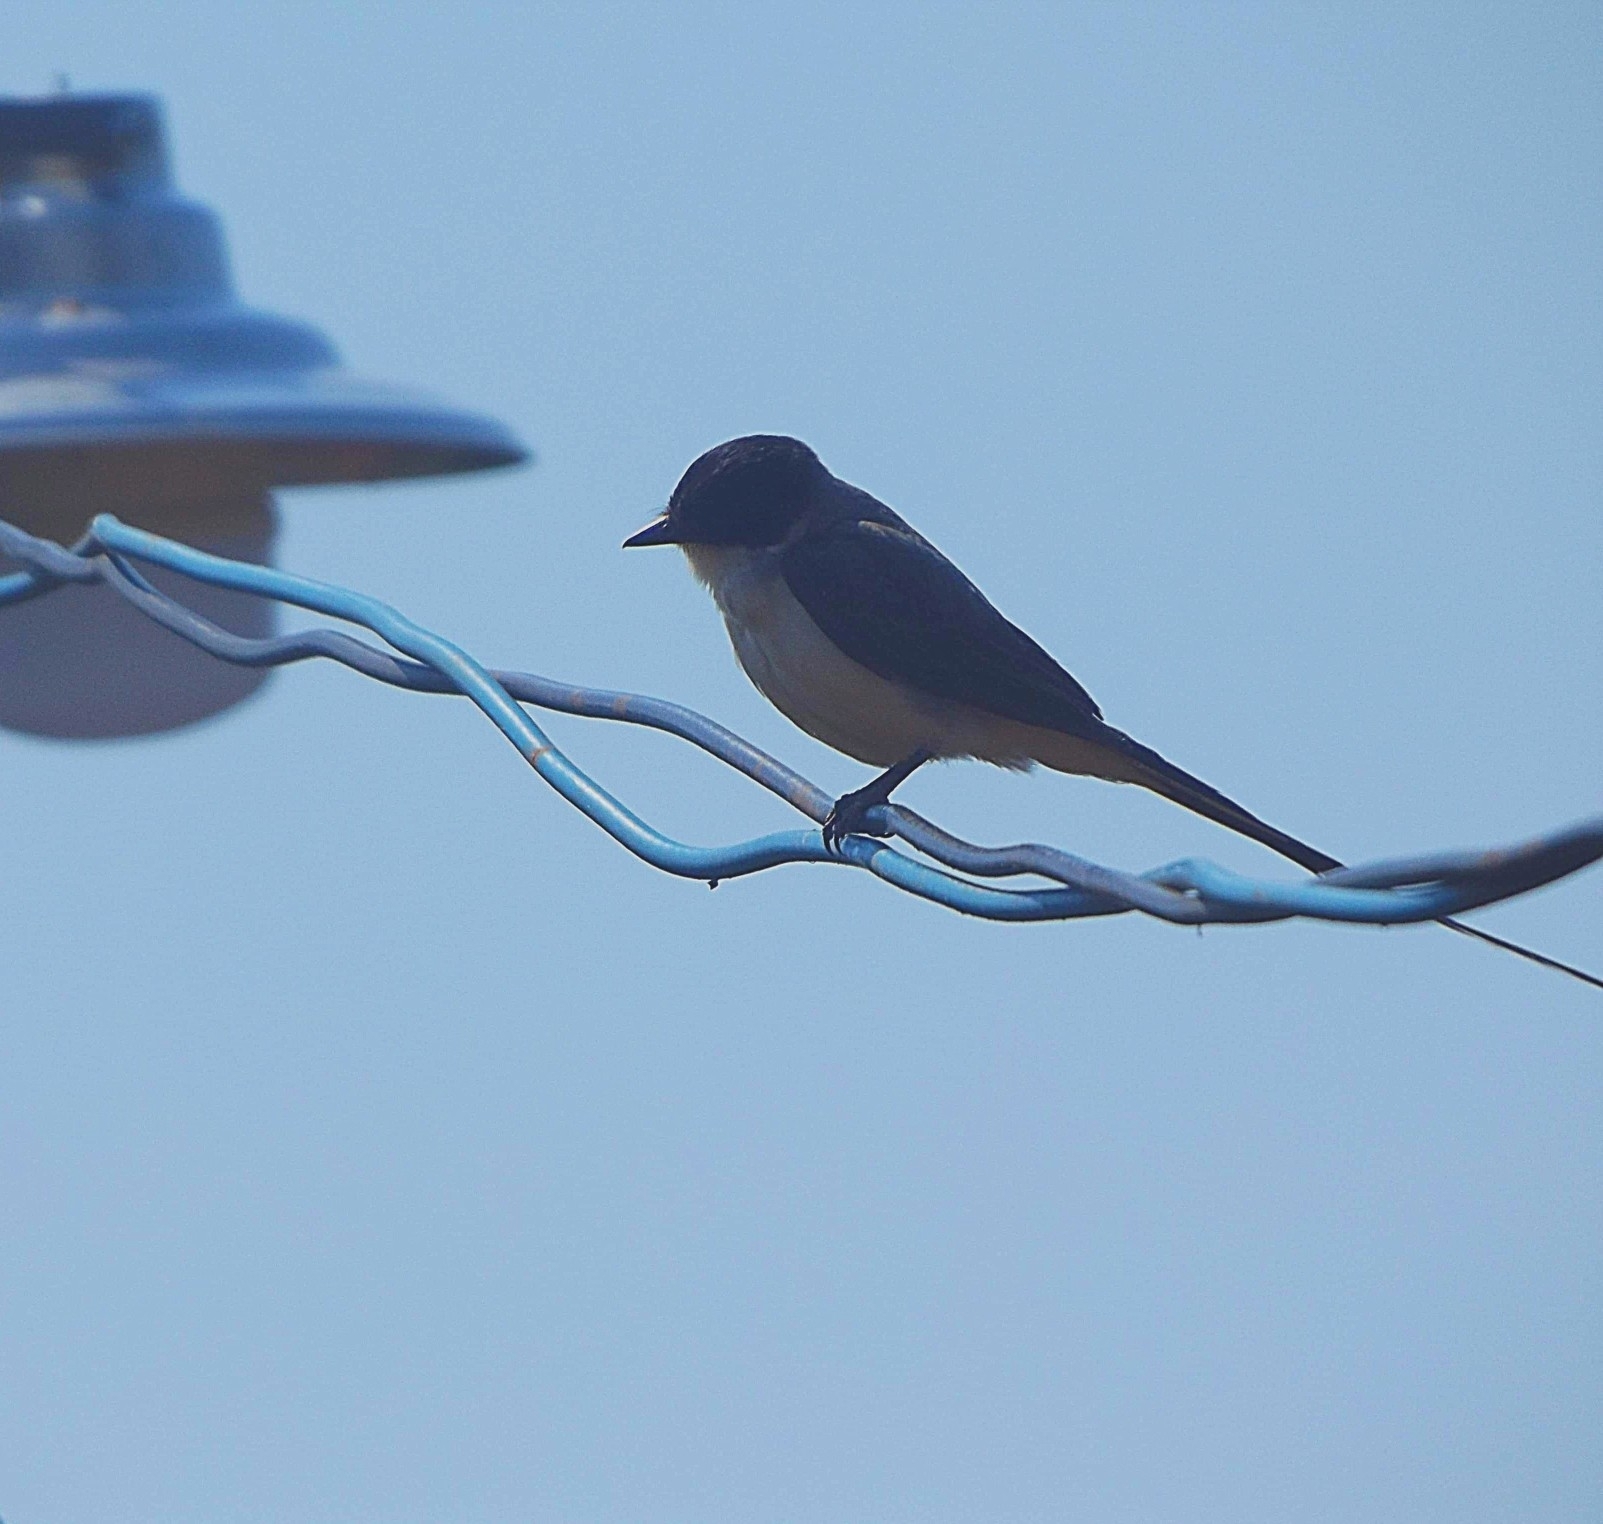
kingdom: Animalia
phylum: Chordata
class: Aves
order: Passeriformes
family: Tyrannidae
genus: Tyrannus
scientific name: Tyrannus savana
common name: Fork-tailed flycatcher
